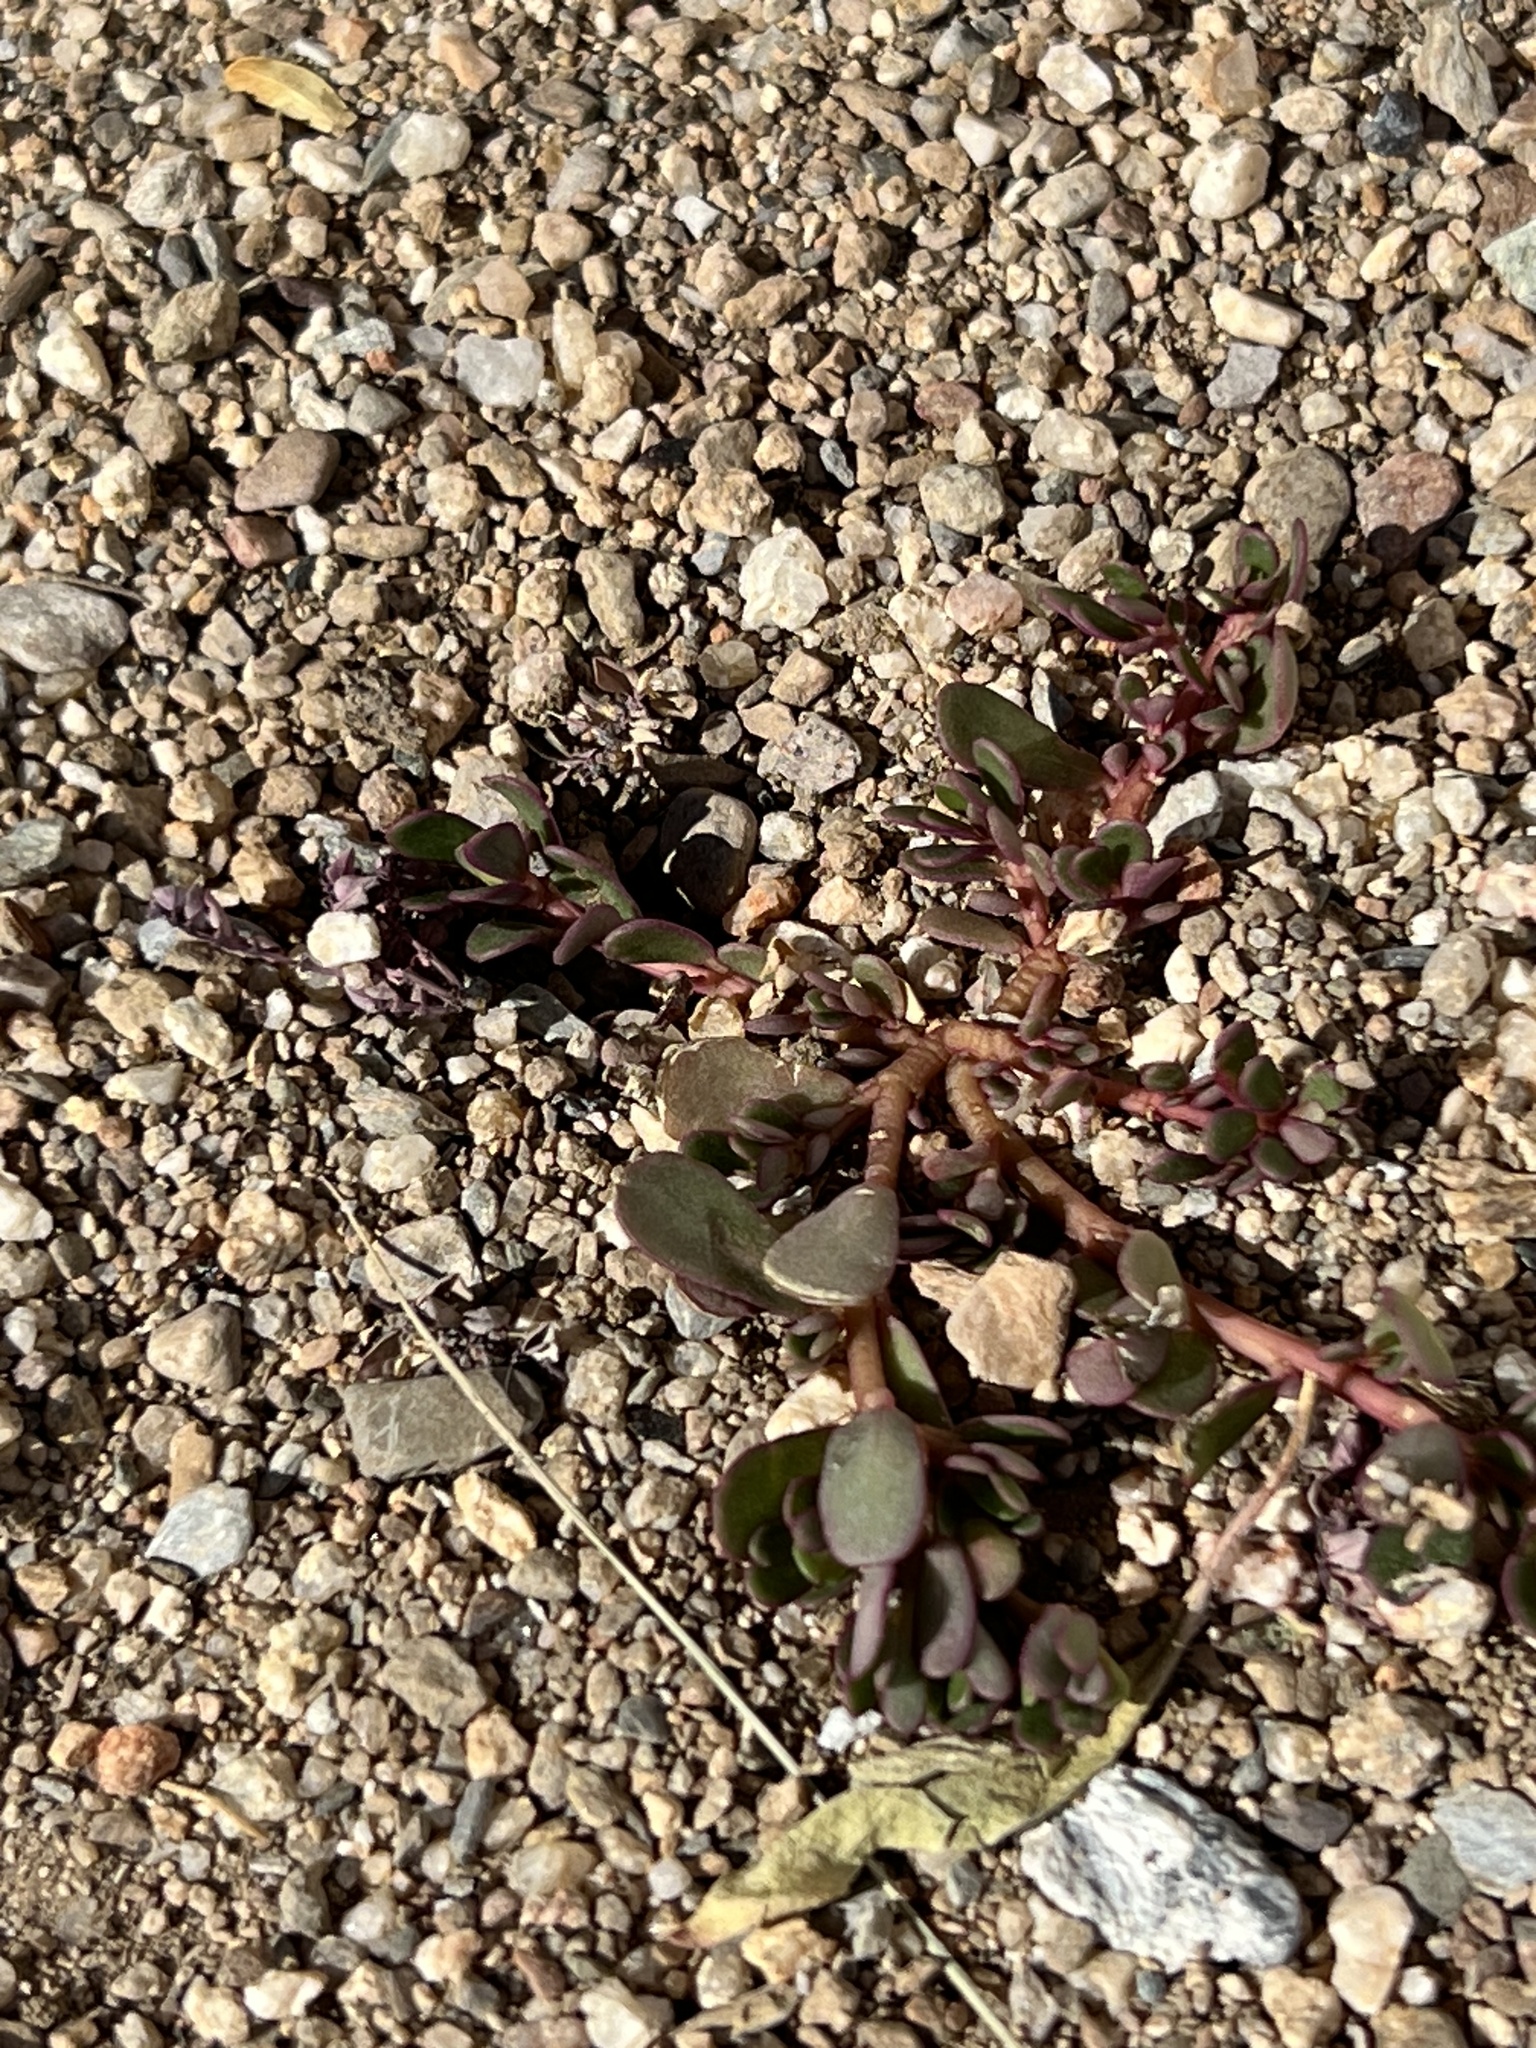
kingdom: Plantae
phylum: Tracheophyta
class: Magnoliopsida
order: Caryophyllales
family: Portulacaceae
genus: Portulaca
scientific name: Portulaca oleracea
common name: Common purslane
